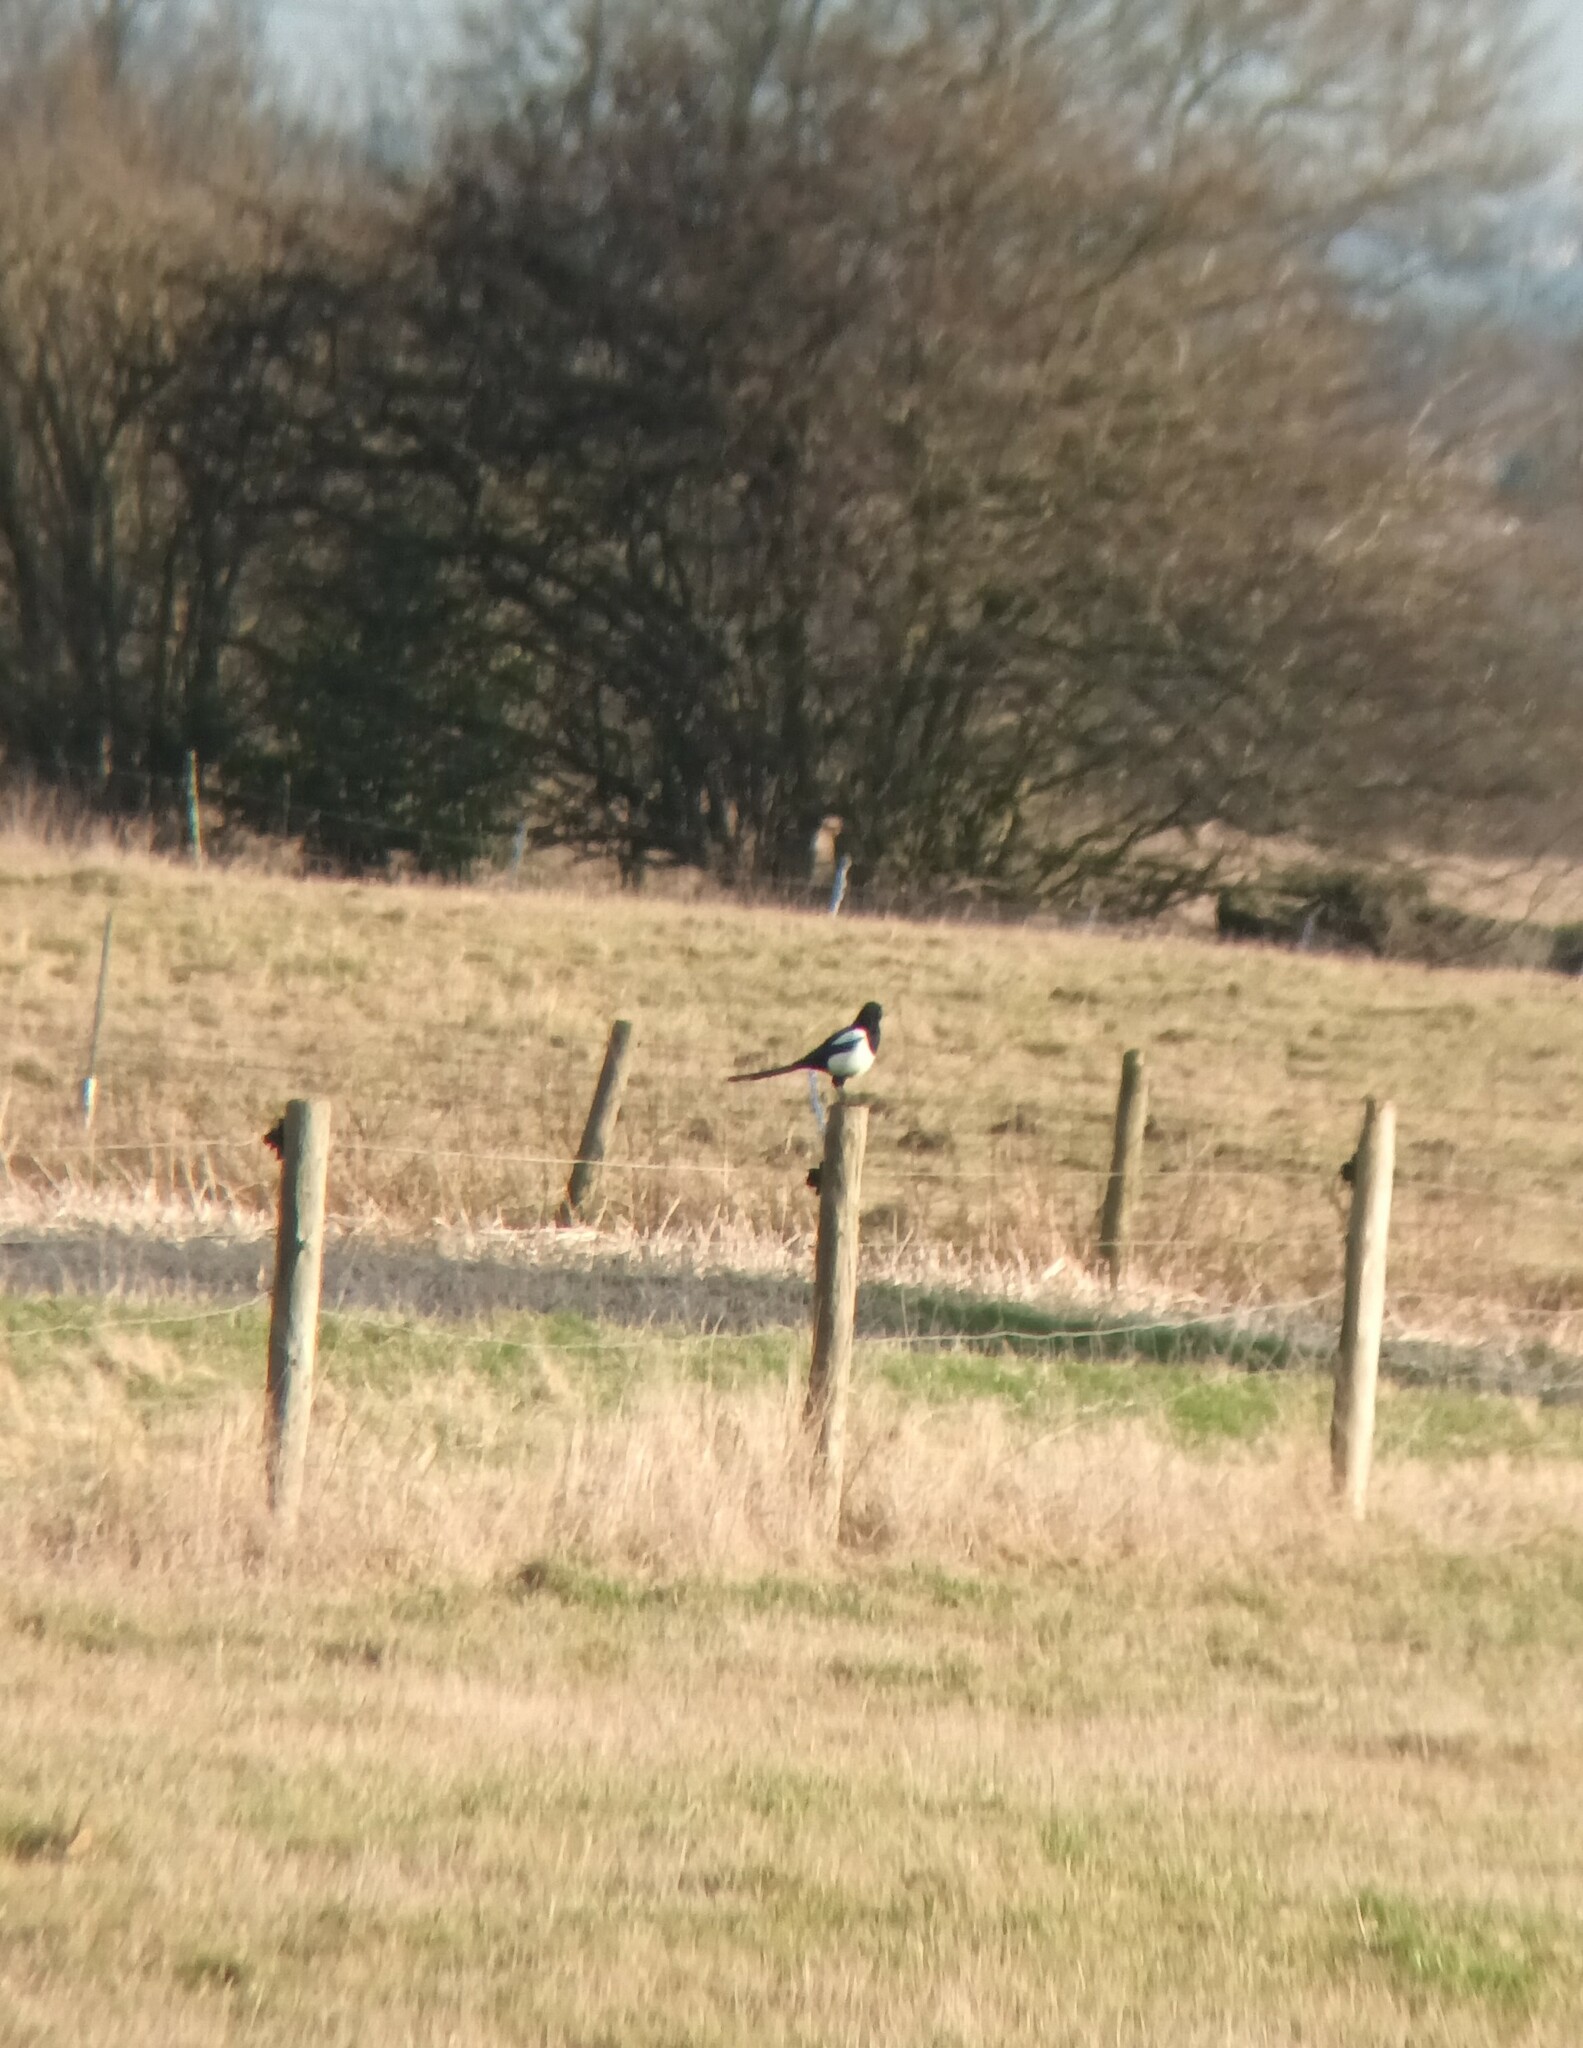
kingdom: Animalia
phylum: Chordata
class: Aves
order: Passeriformes
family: Corvidae
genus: Pica
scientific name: Pica pica
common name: Eurasian magpie
